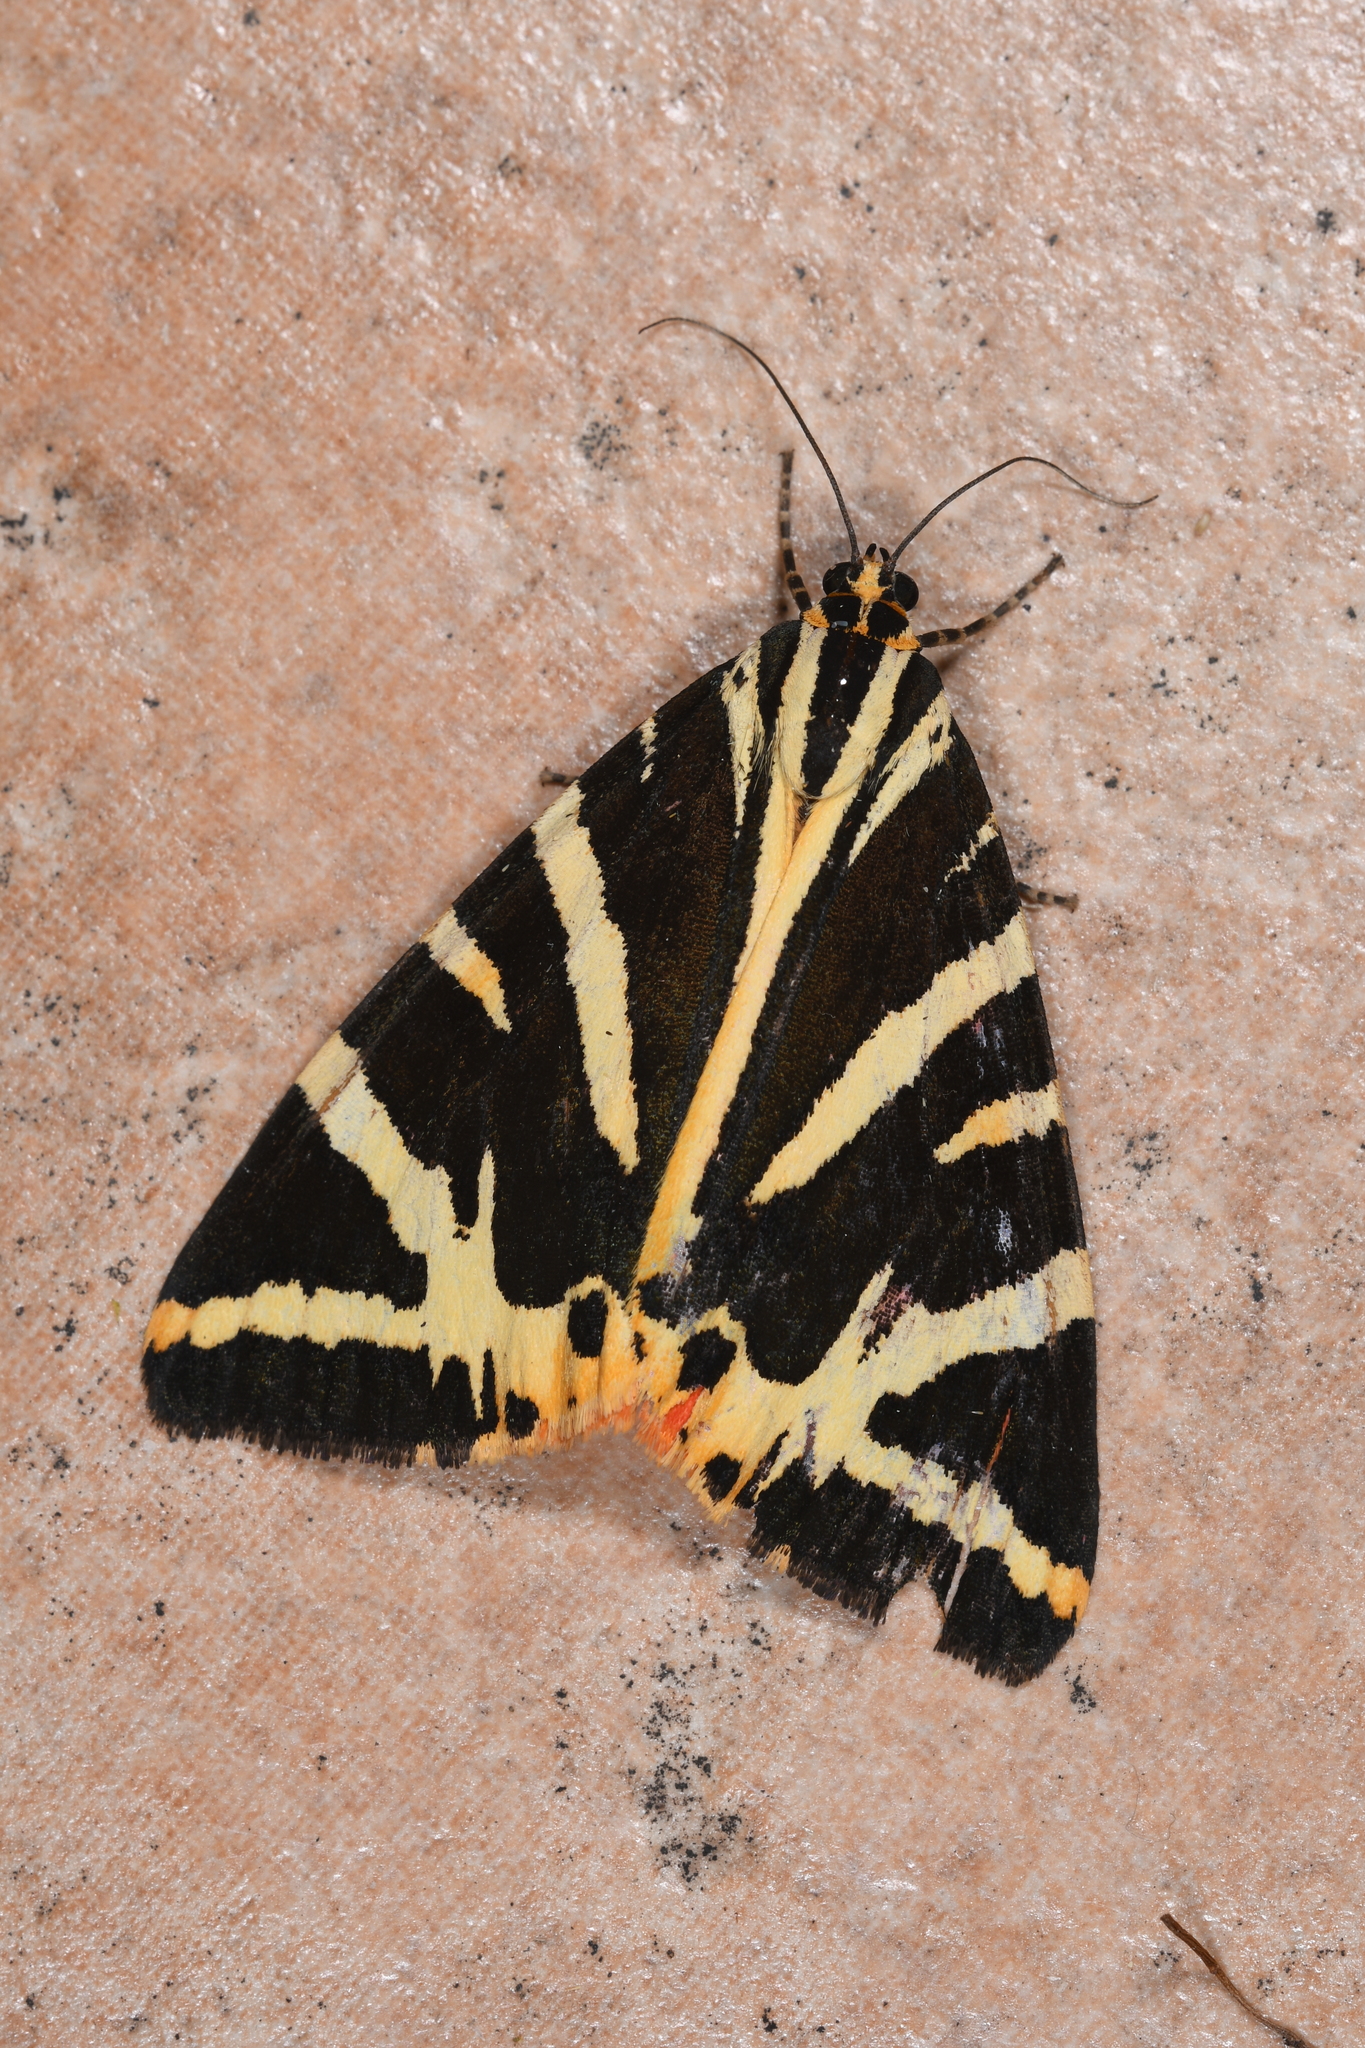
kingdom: Animalia
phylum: Arthropoda
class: Insecta
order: Lepidoptera
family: Erebidae
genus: Euplagia
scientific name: Euplagia quadripunctaria
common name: Jersey tiger
